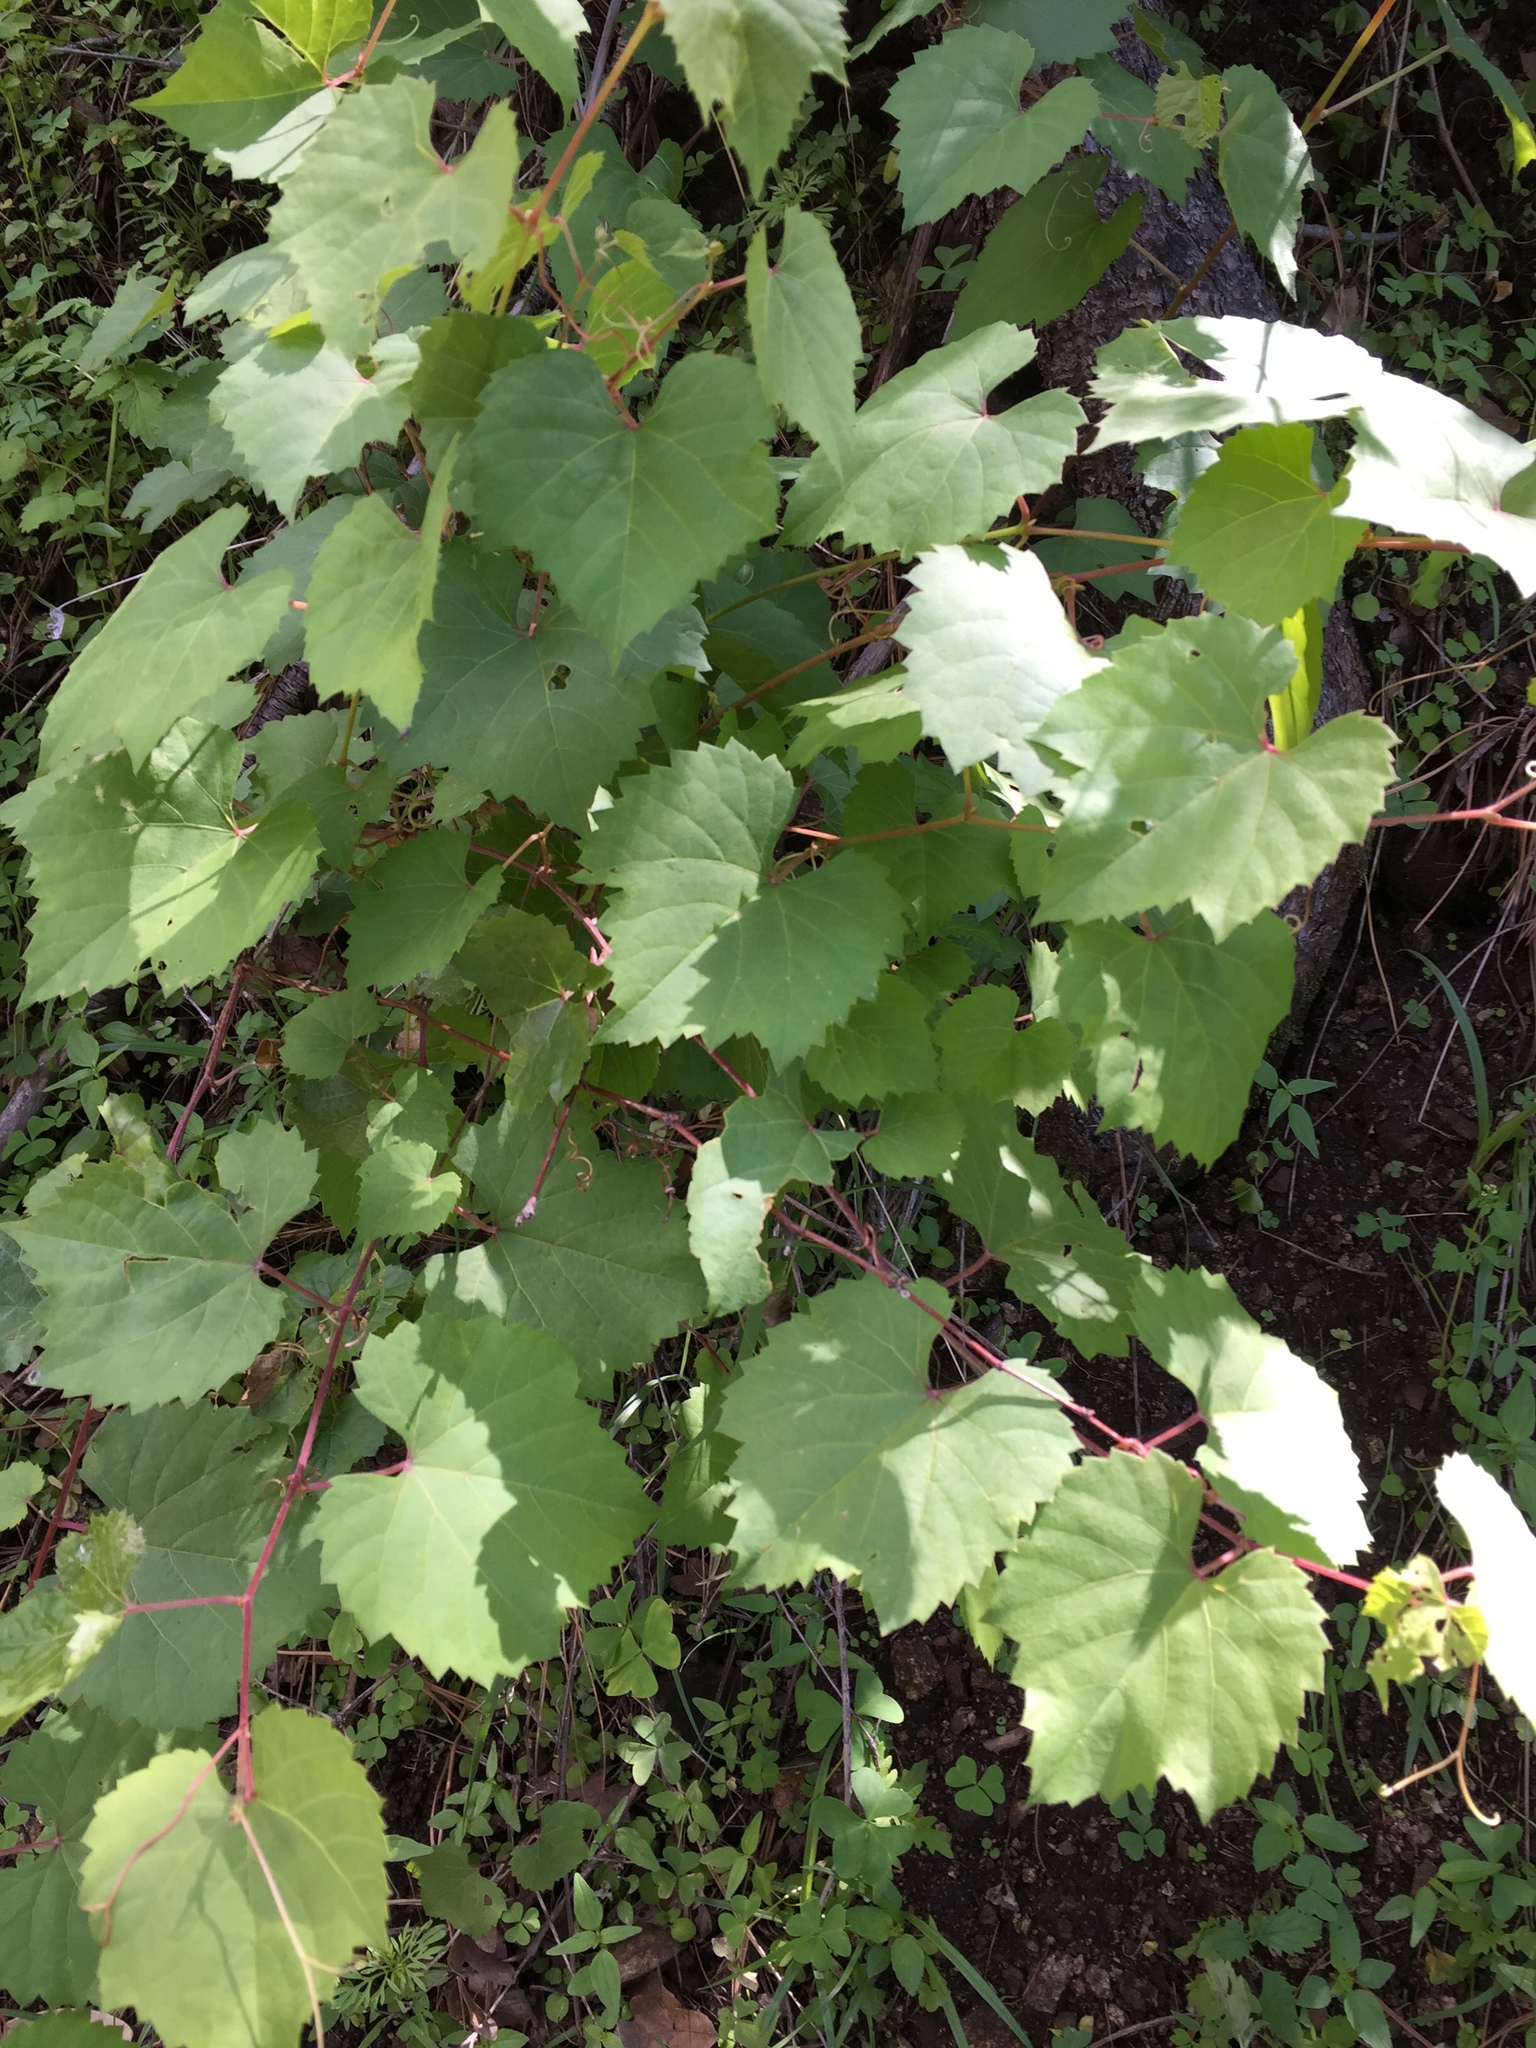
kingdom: Plantae
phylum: Tracheophyta
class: Magnoliopsida
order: Vitales
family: Vitaceae
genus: Vitis
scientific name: Vitis arizonica
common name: Canyon grape
